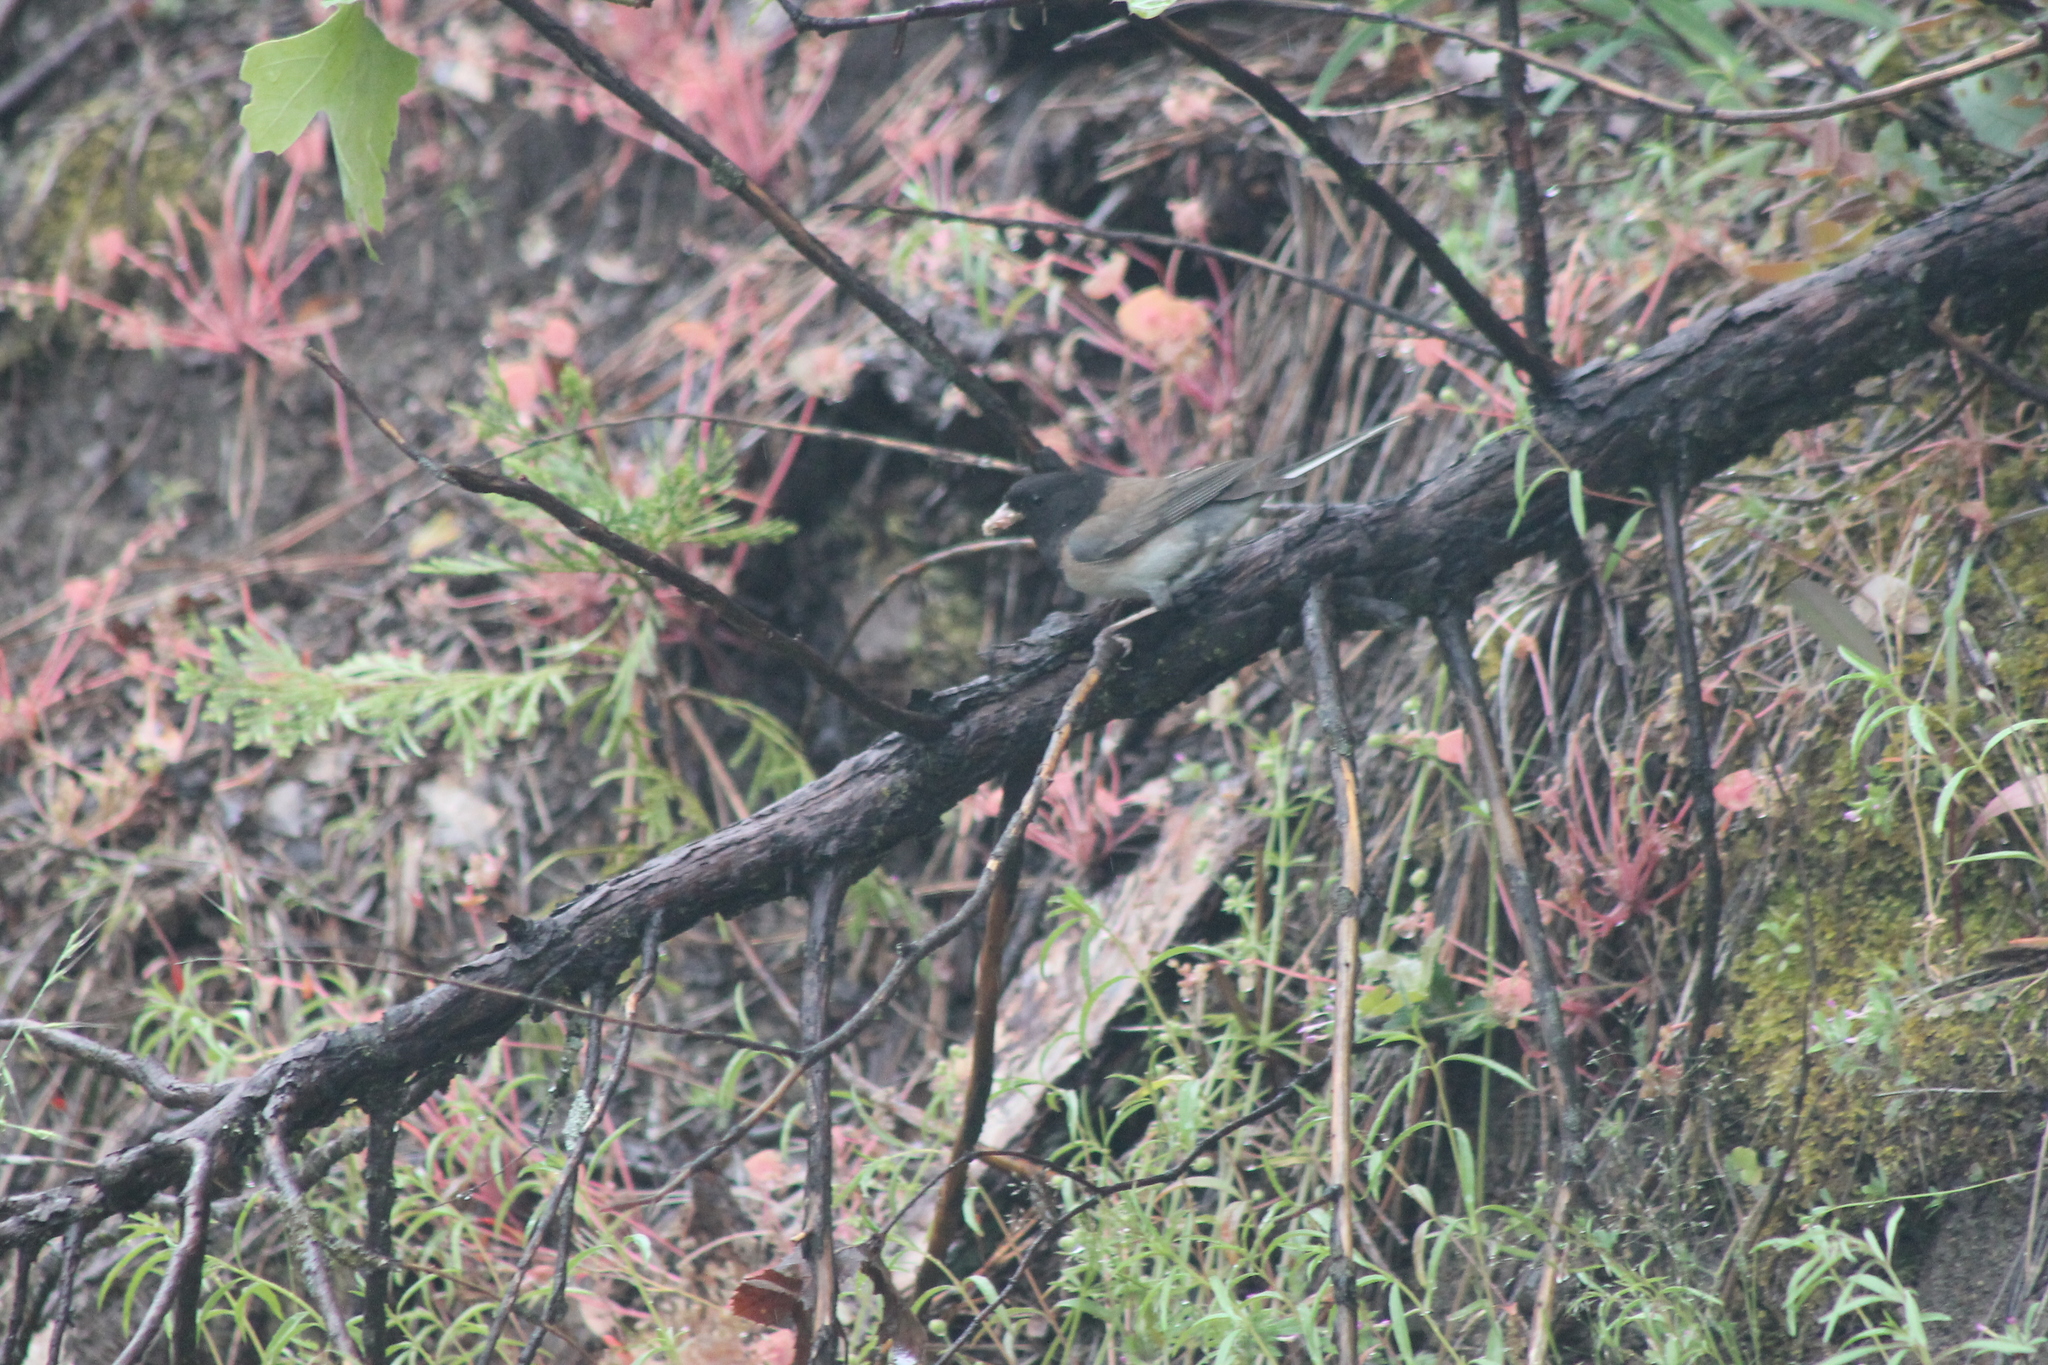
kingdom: Animalia
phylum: Chordata
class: Aves
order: Passeriformes
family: Passerellidae
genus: Junco
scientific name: Junco hyemalis
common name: Dark-eyed junco
